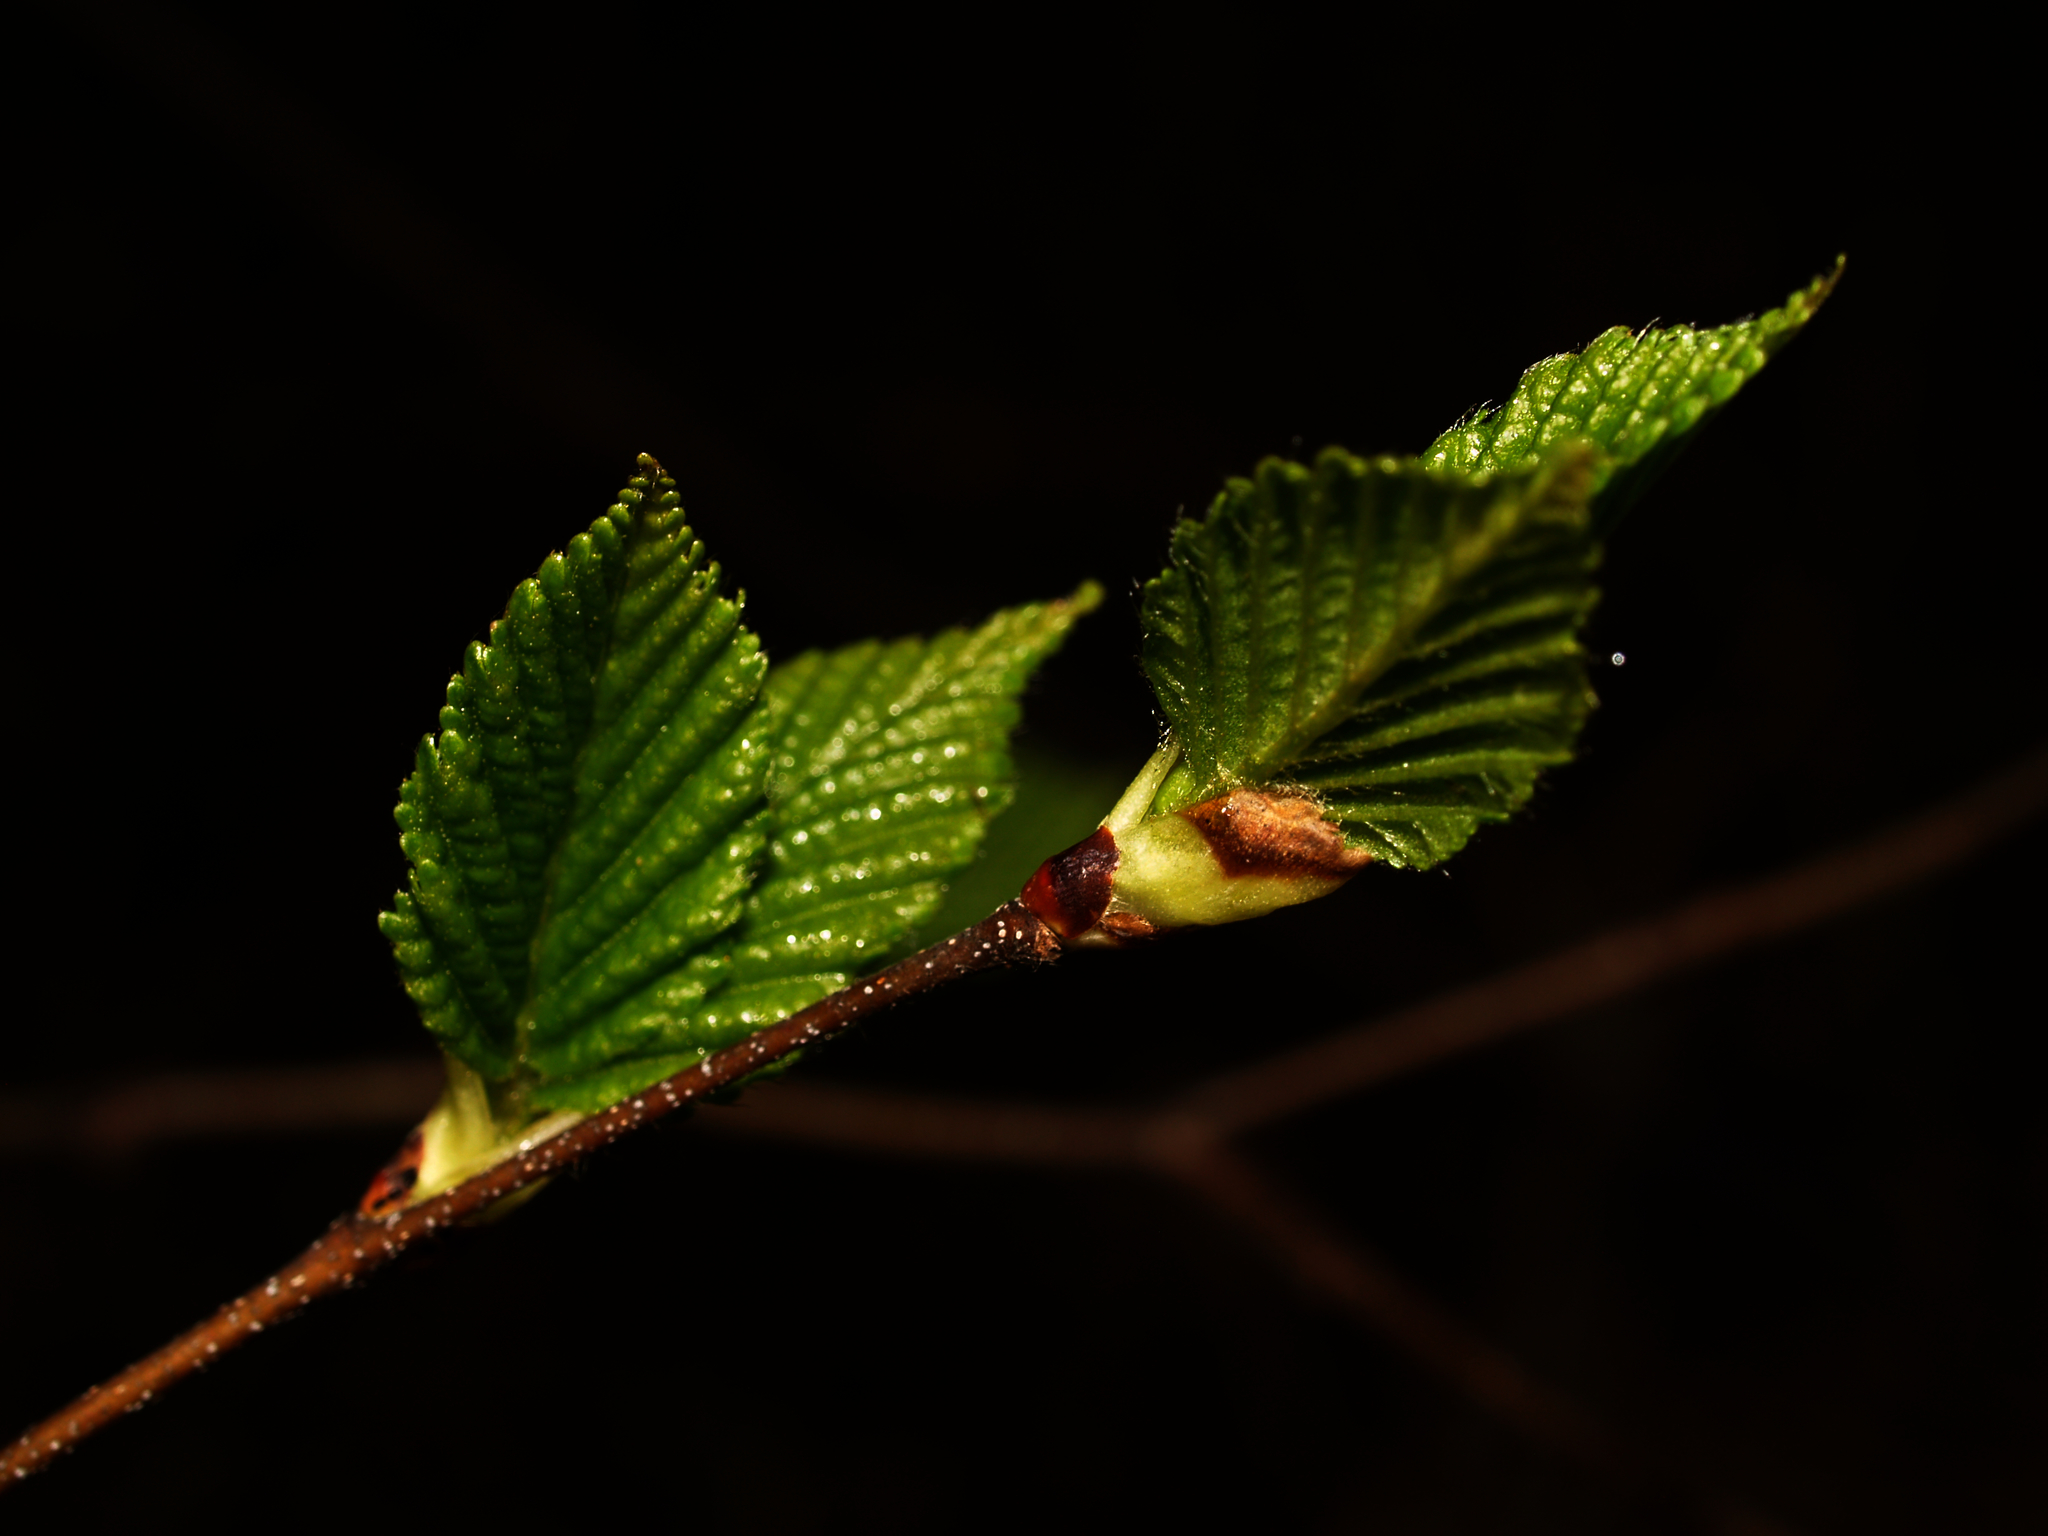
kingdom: Plantae
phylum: Tracheophyta
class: Magnoliopsida
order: Fagales
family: Fagaceae
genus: Fagus
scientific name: Fagus grandifolia
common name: American beech
